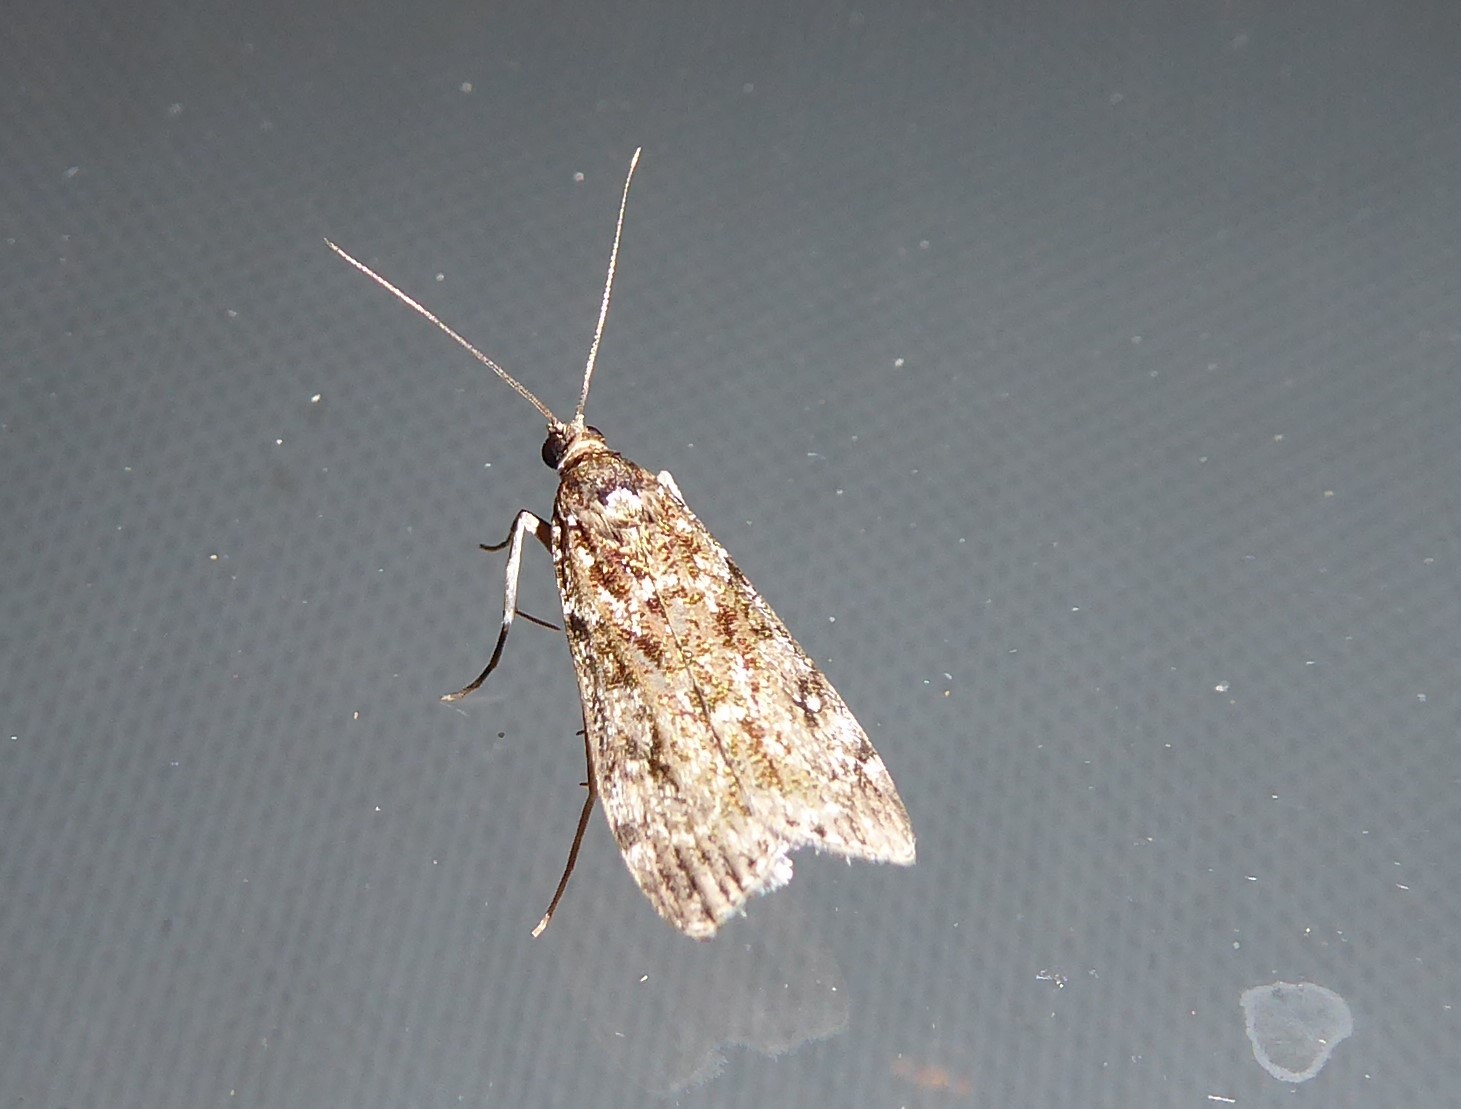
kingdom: Animalia
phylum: Arthropoda
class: Insecta
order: Lepidoptera
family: Crambidae
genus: Eudonia
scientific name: Eudonia philerga
